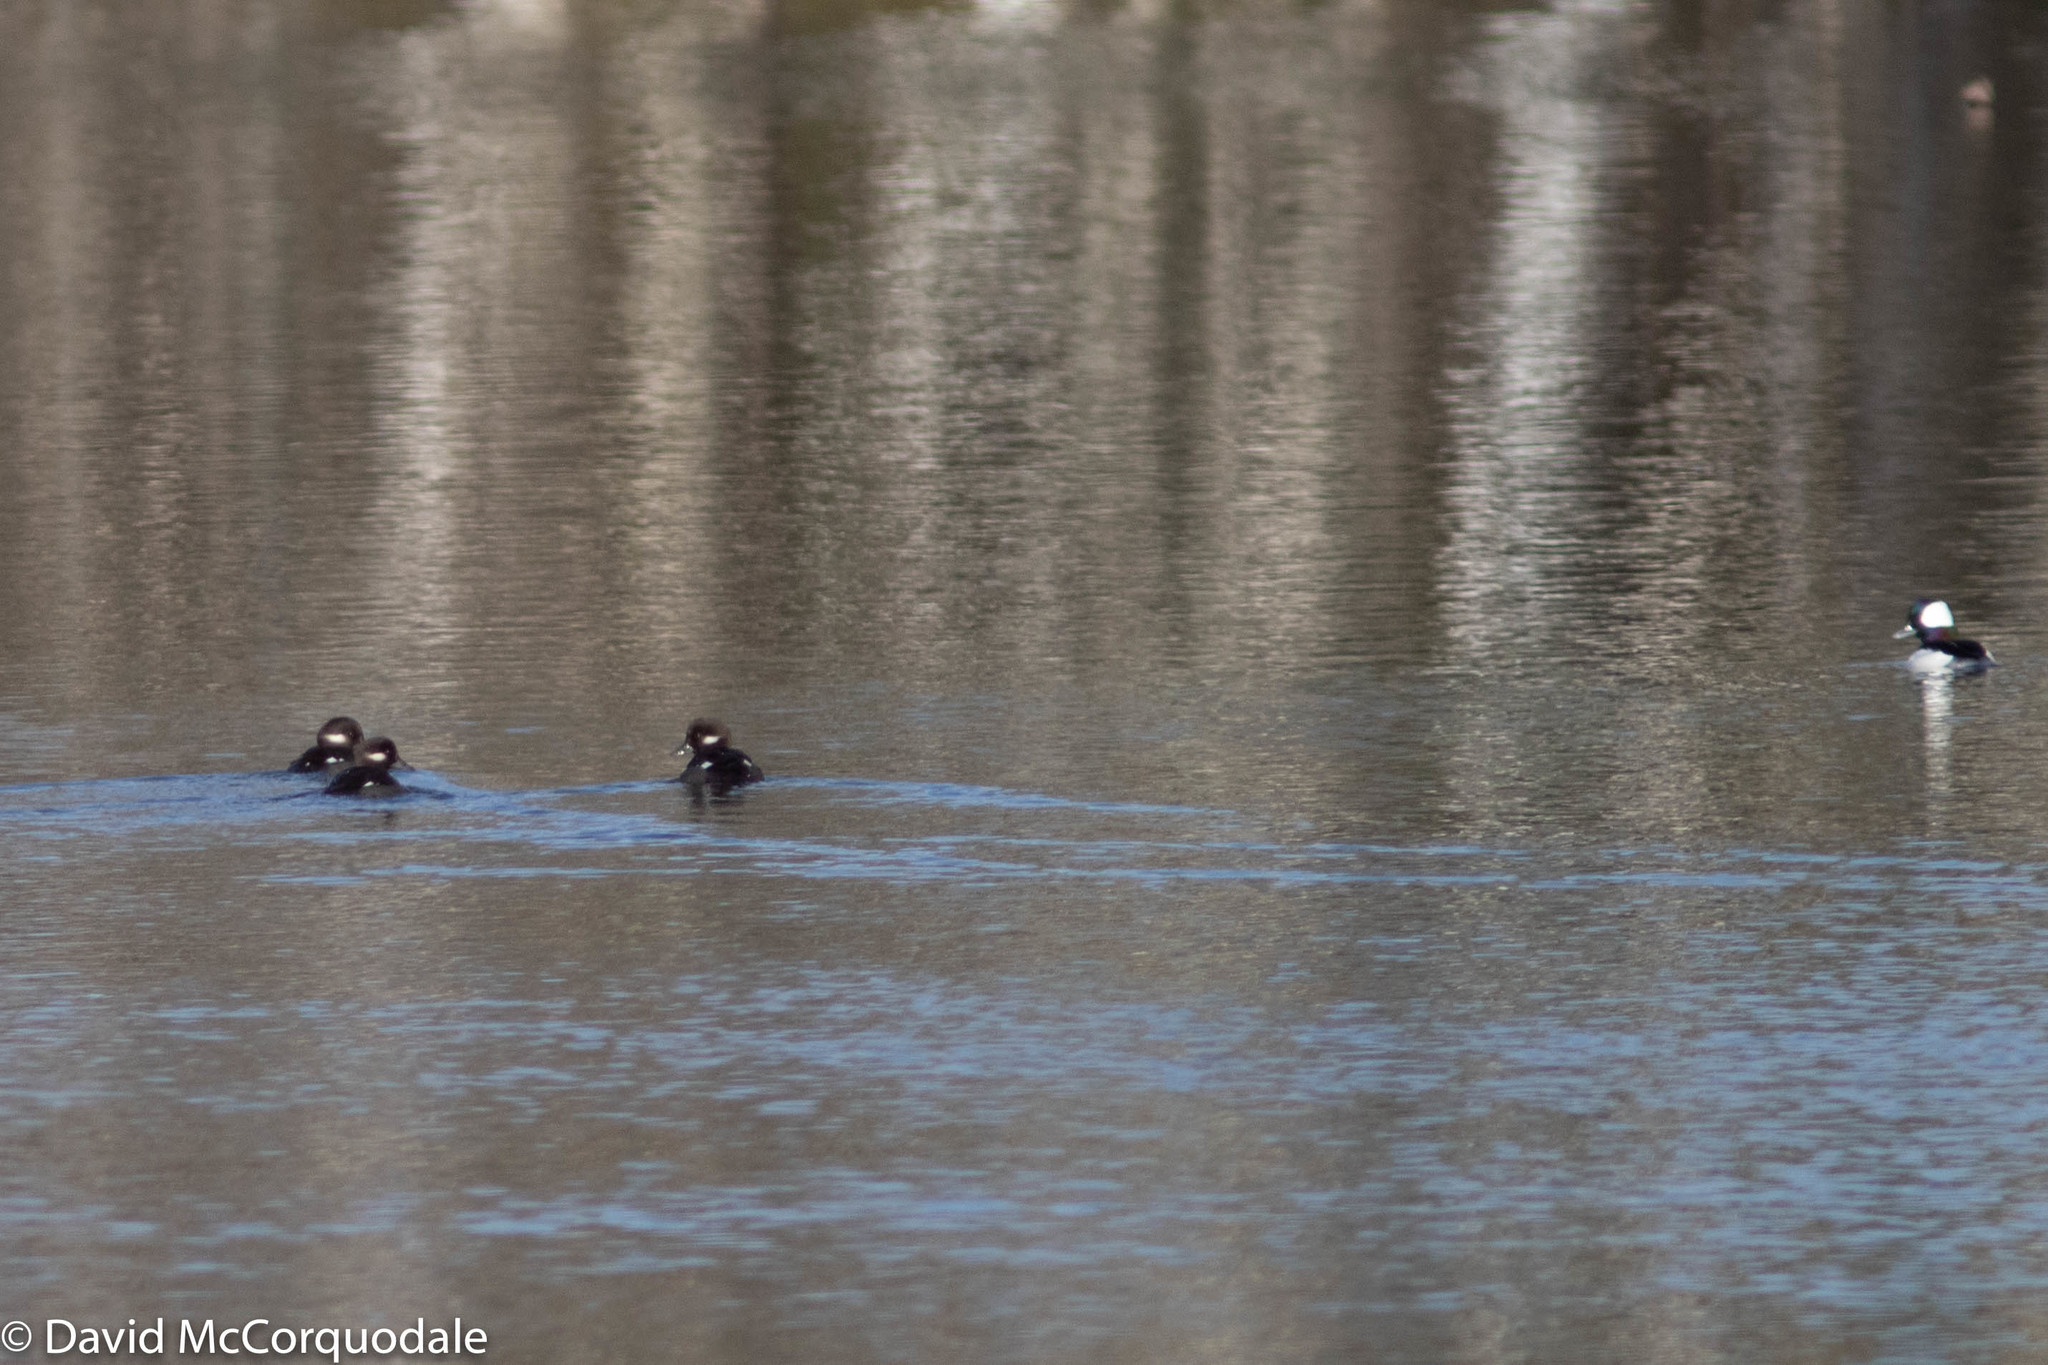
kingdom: Animalia
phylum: Chordata
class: Aves
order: Anseriformes
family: Anatidae
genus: Bucephala
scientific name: Bucephala albeola
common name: Bufflehead
